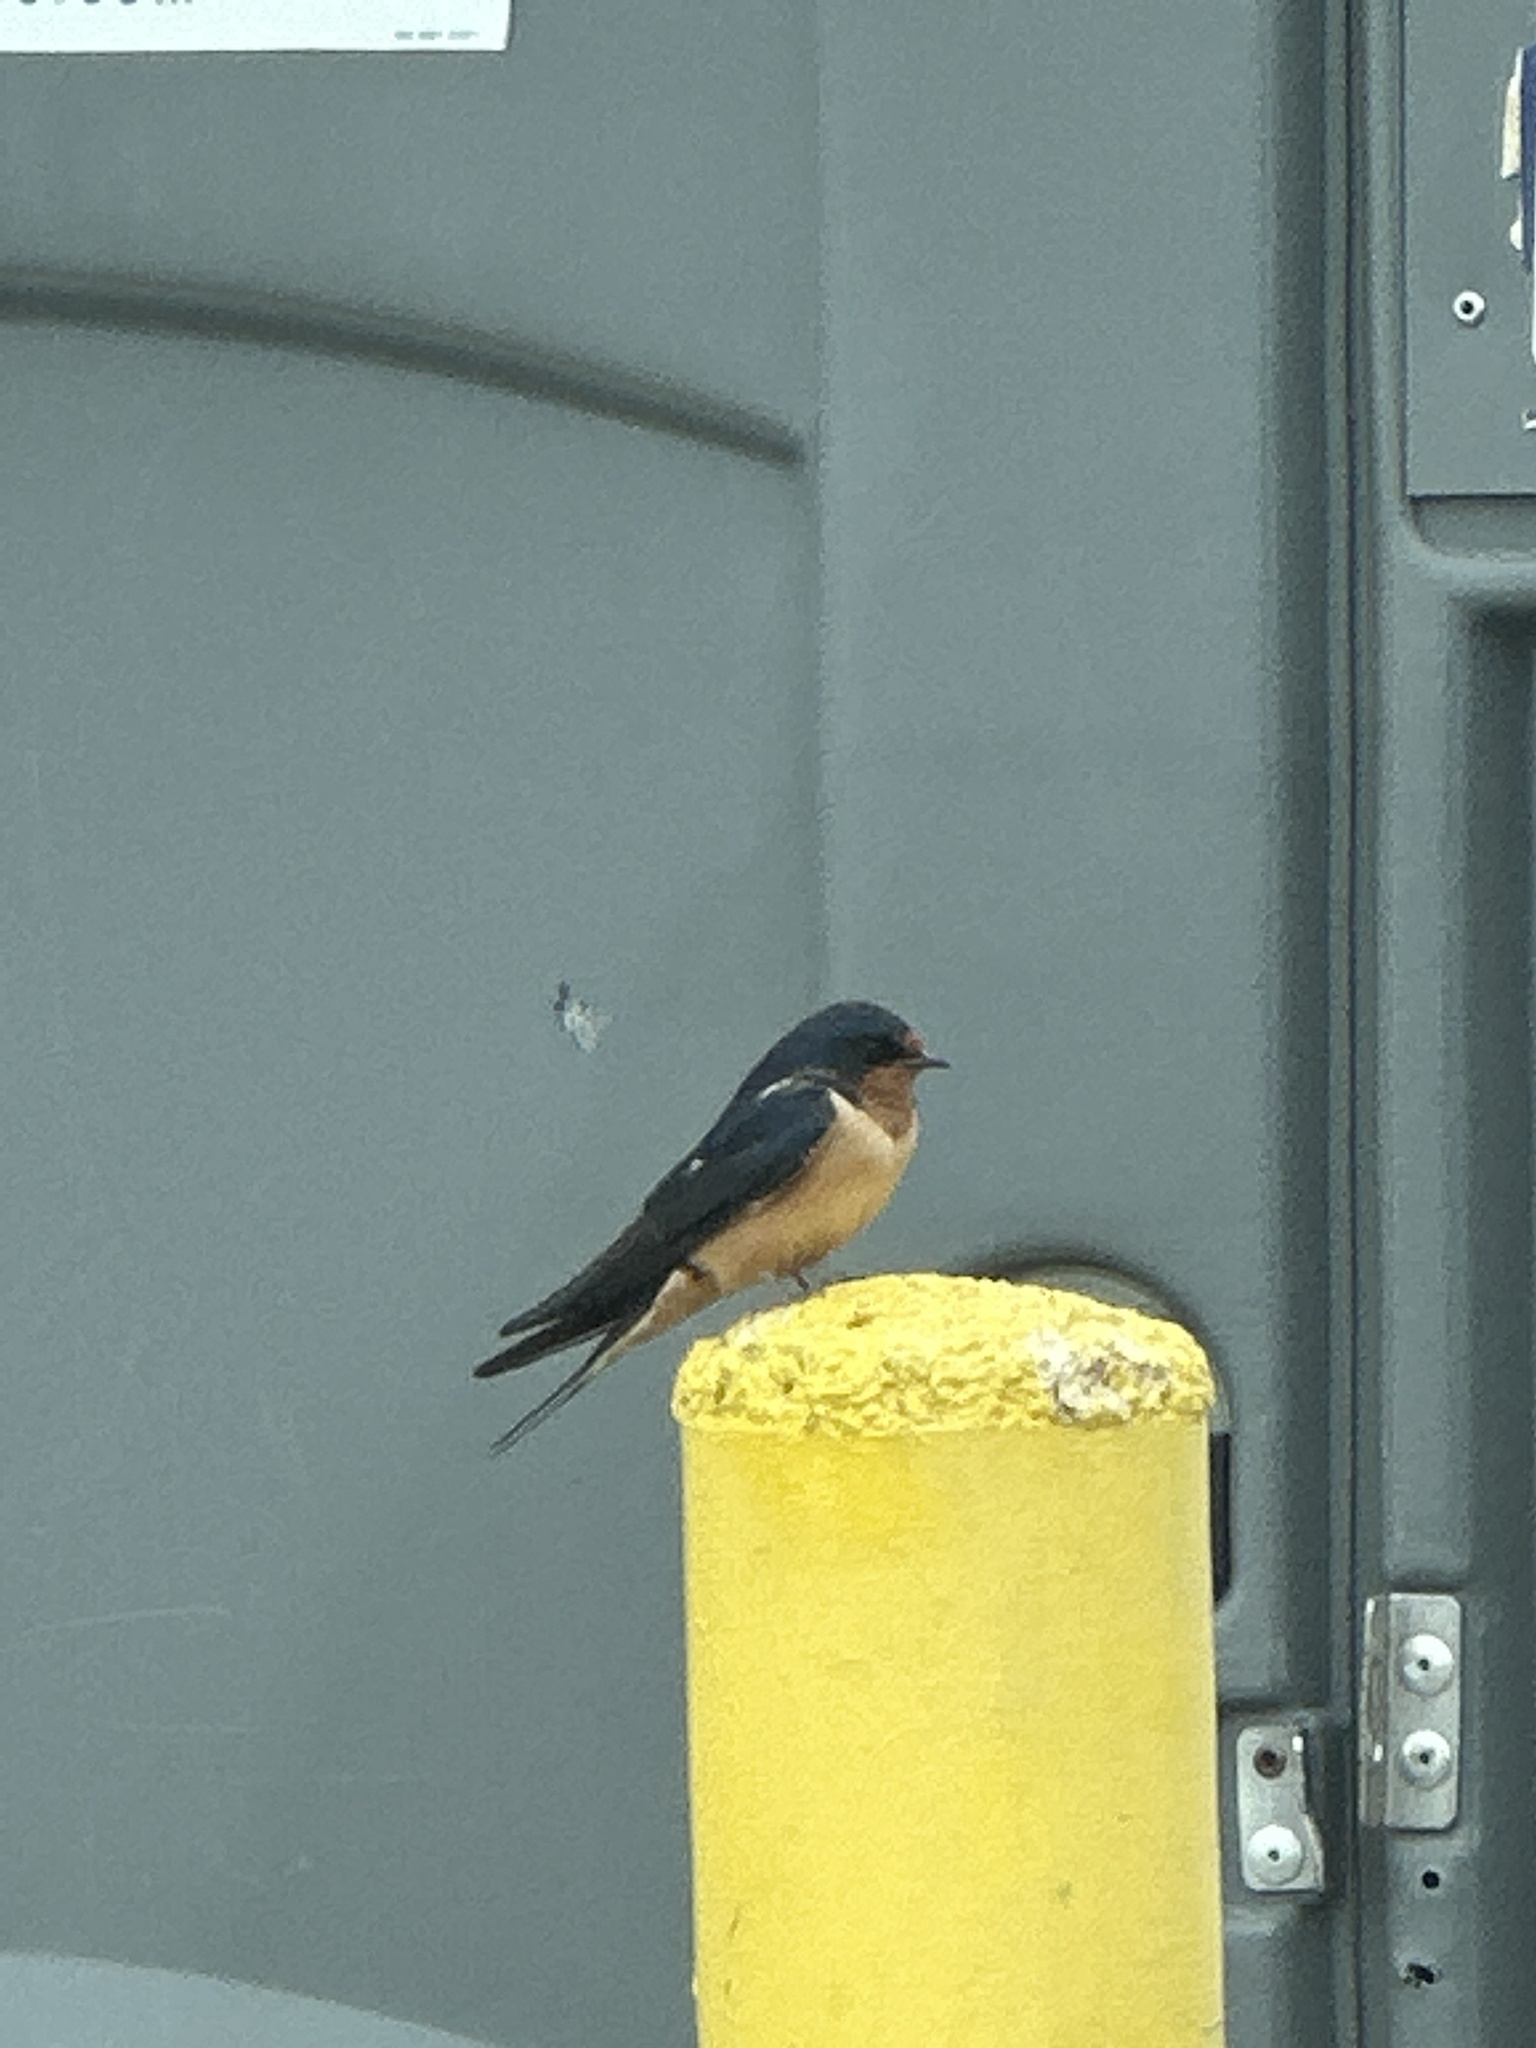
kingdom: Animalia
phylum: Chordata
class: Aves
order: Passeriformes
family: Hirundinidae
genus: Hirundo
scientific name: Hirundo rustica
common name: Barn swallow
